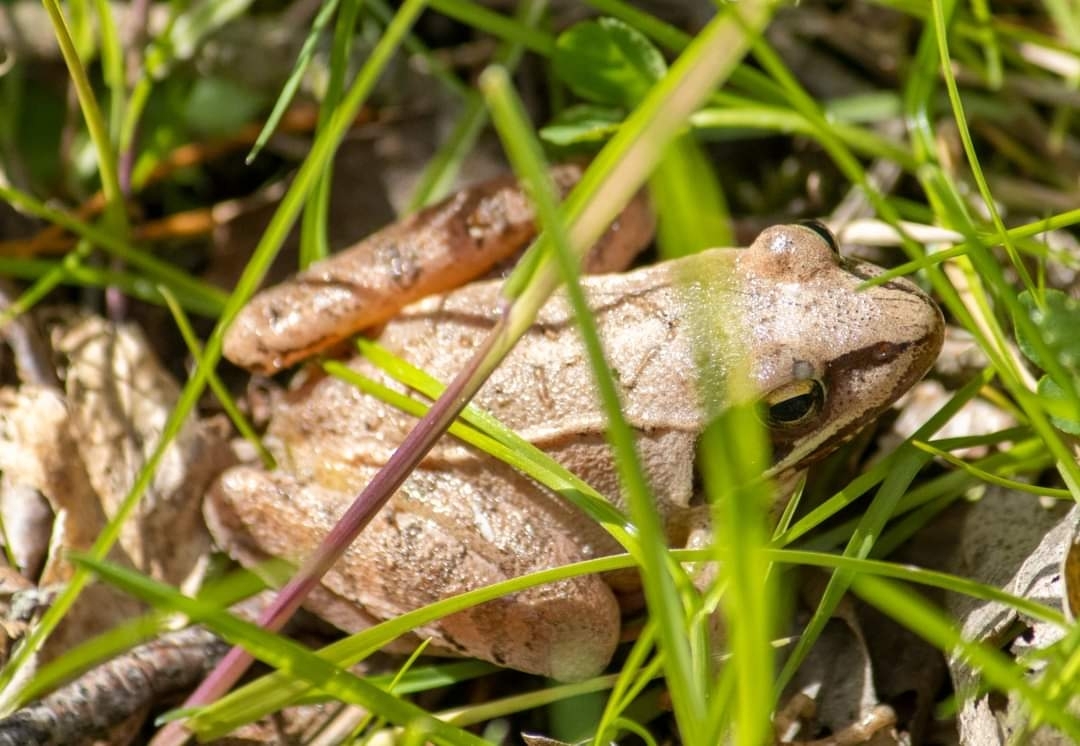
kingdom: Animalia
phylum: Chordata
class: Amphibia
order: Anura
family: Ranidae
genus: Rana
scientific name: Rana dalmatina
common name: Agile frog
